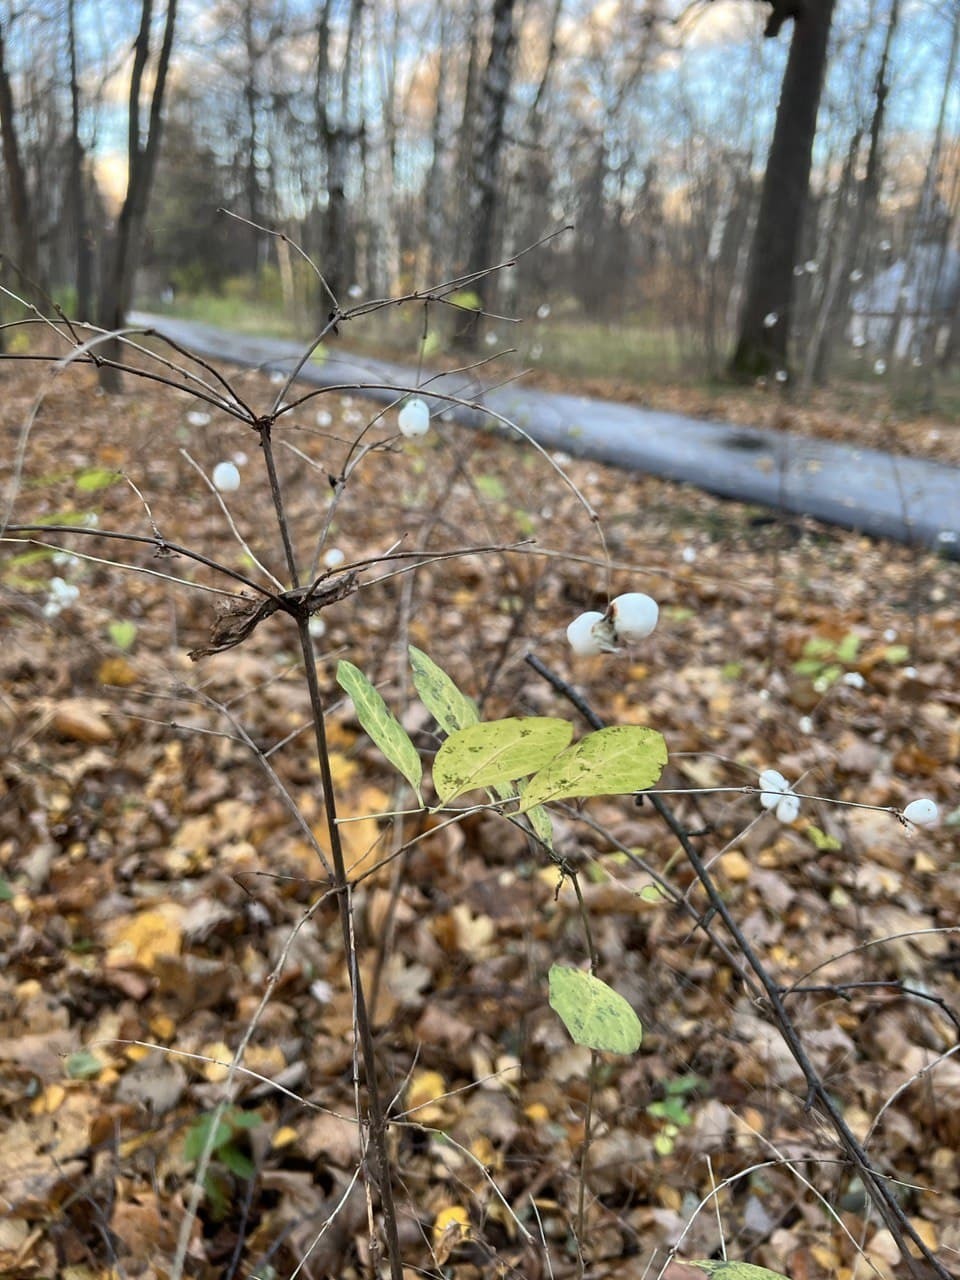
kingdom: Plantae
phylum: Tracheophyta
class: Magnoliopsida
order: Dipsacales
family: Caprifoliaceae
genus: Symphoricarpos
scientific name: Symphoricarpos albus
